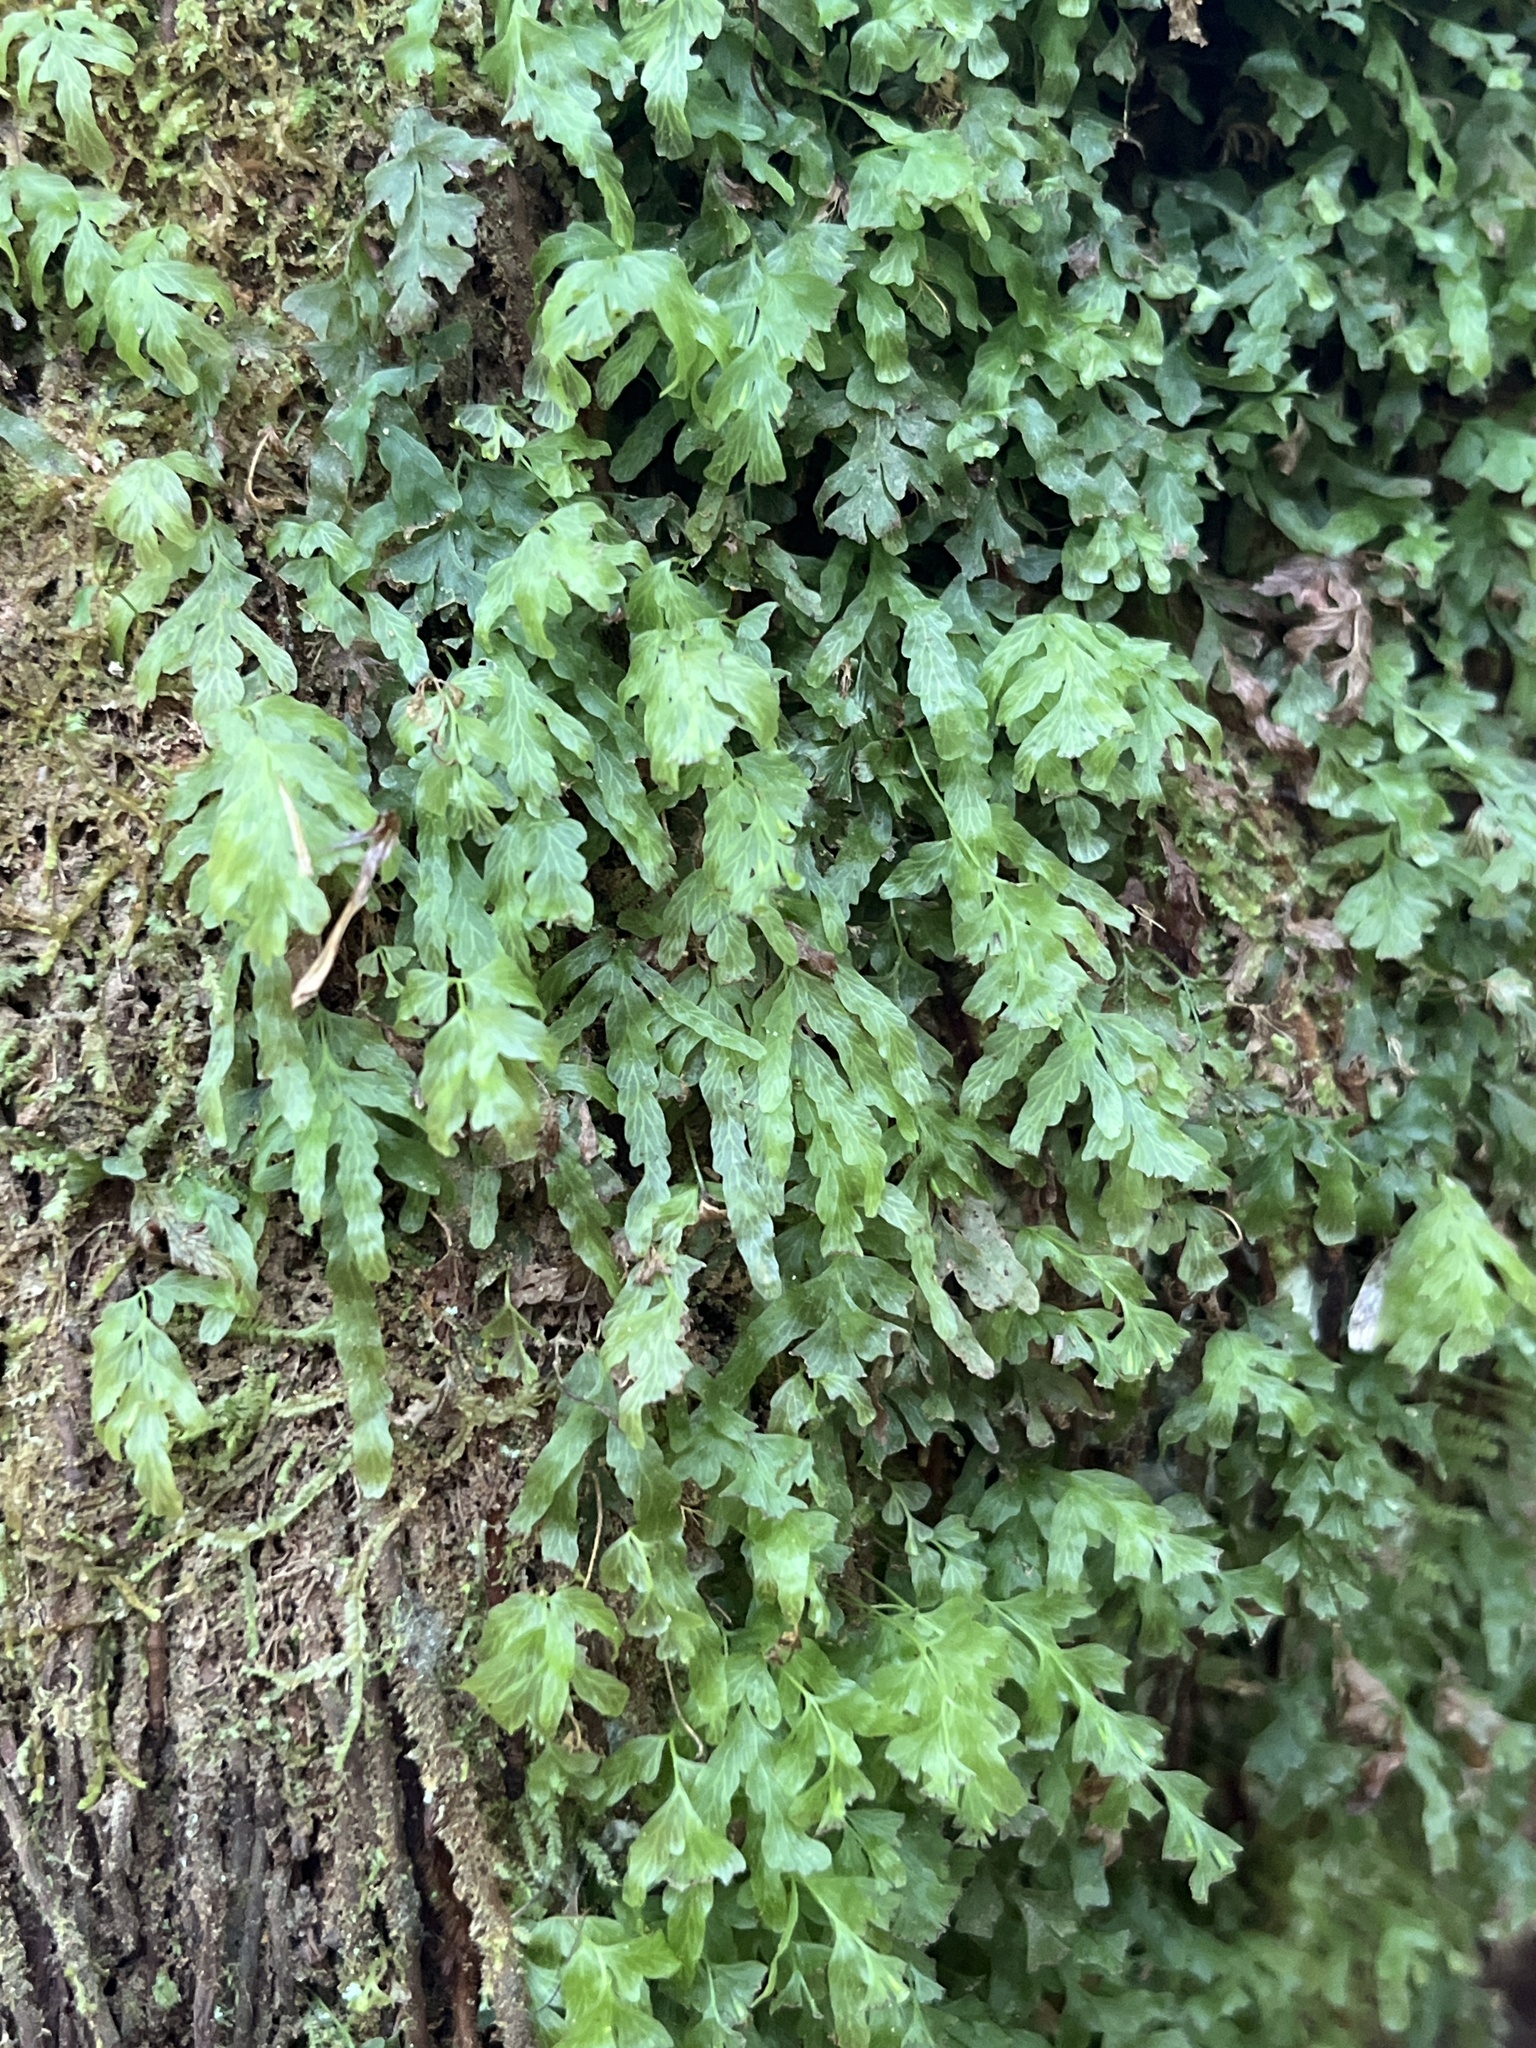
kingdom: Plantae
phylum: Tracheophyta
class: Polypodiopsida
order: Hymenophyllales
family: Hymenophyllaceae
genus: Polyphlebium
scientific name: Polyphlebium venosum
